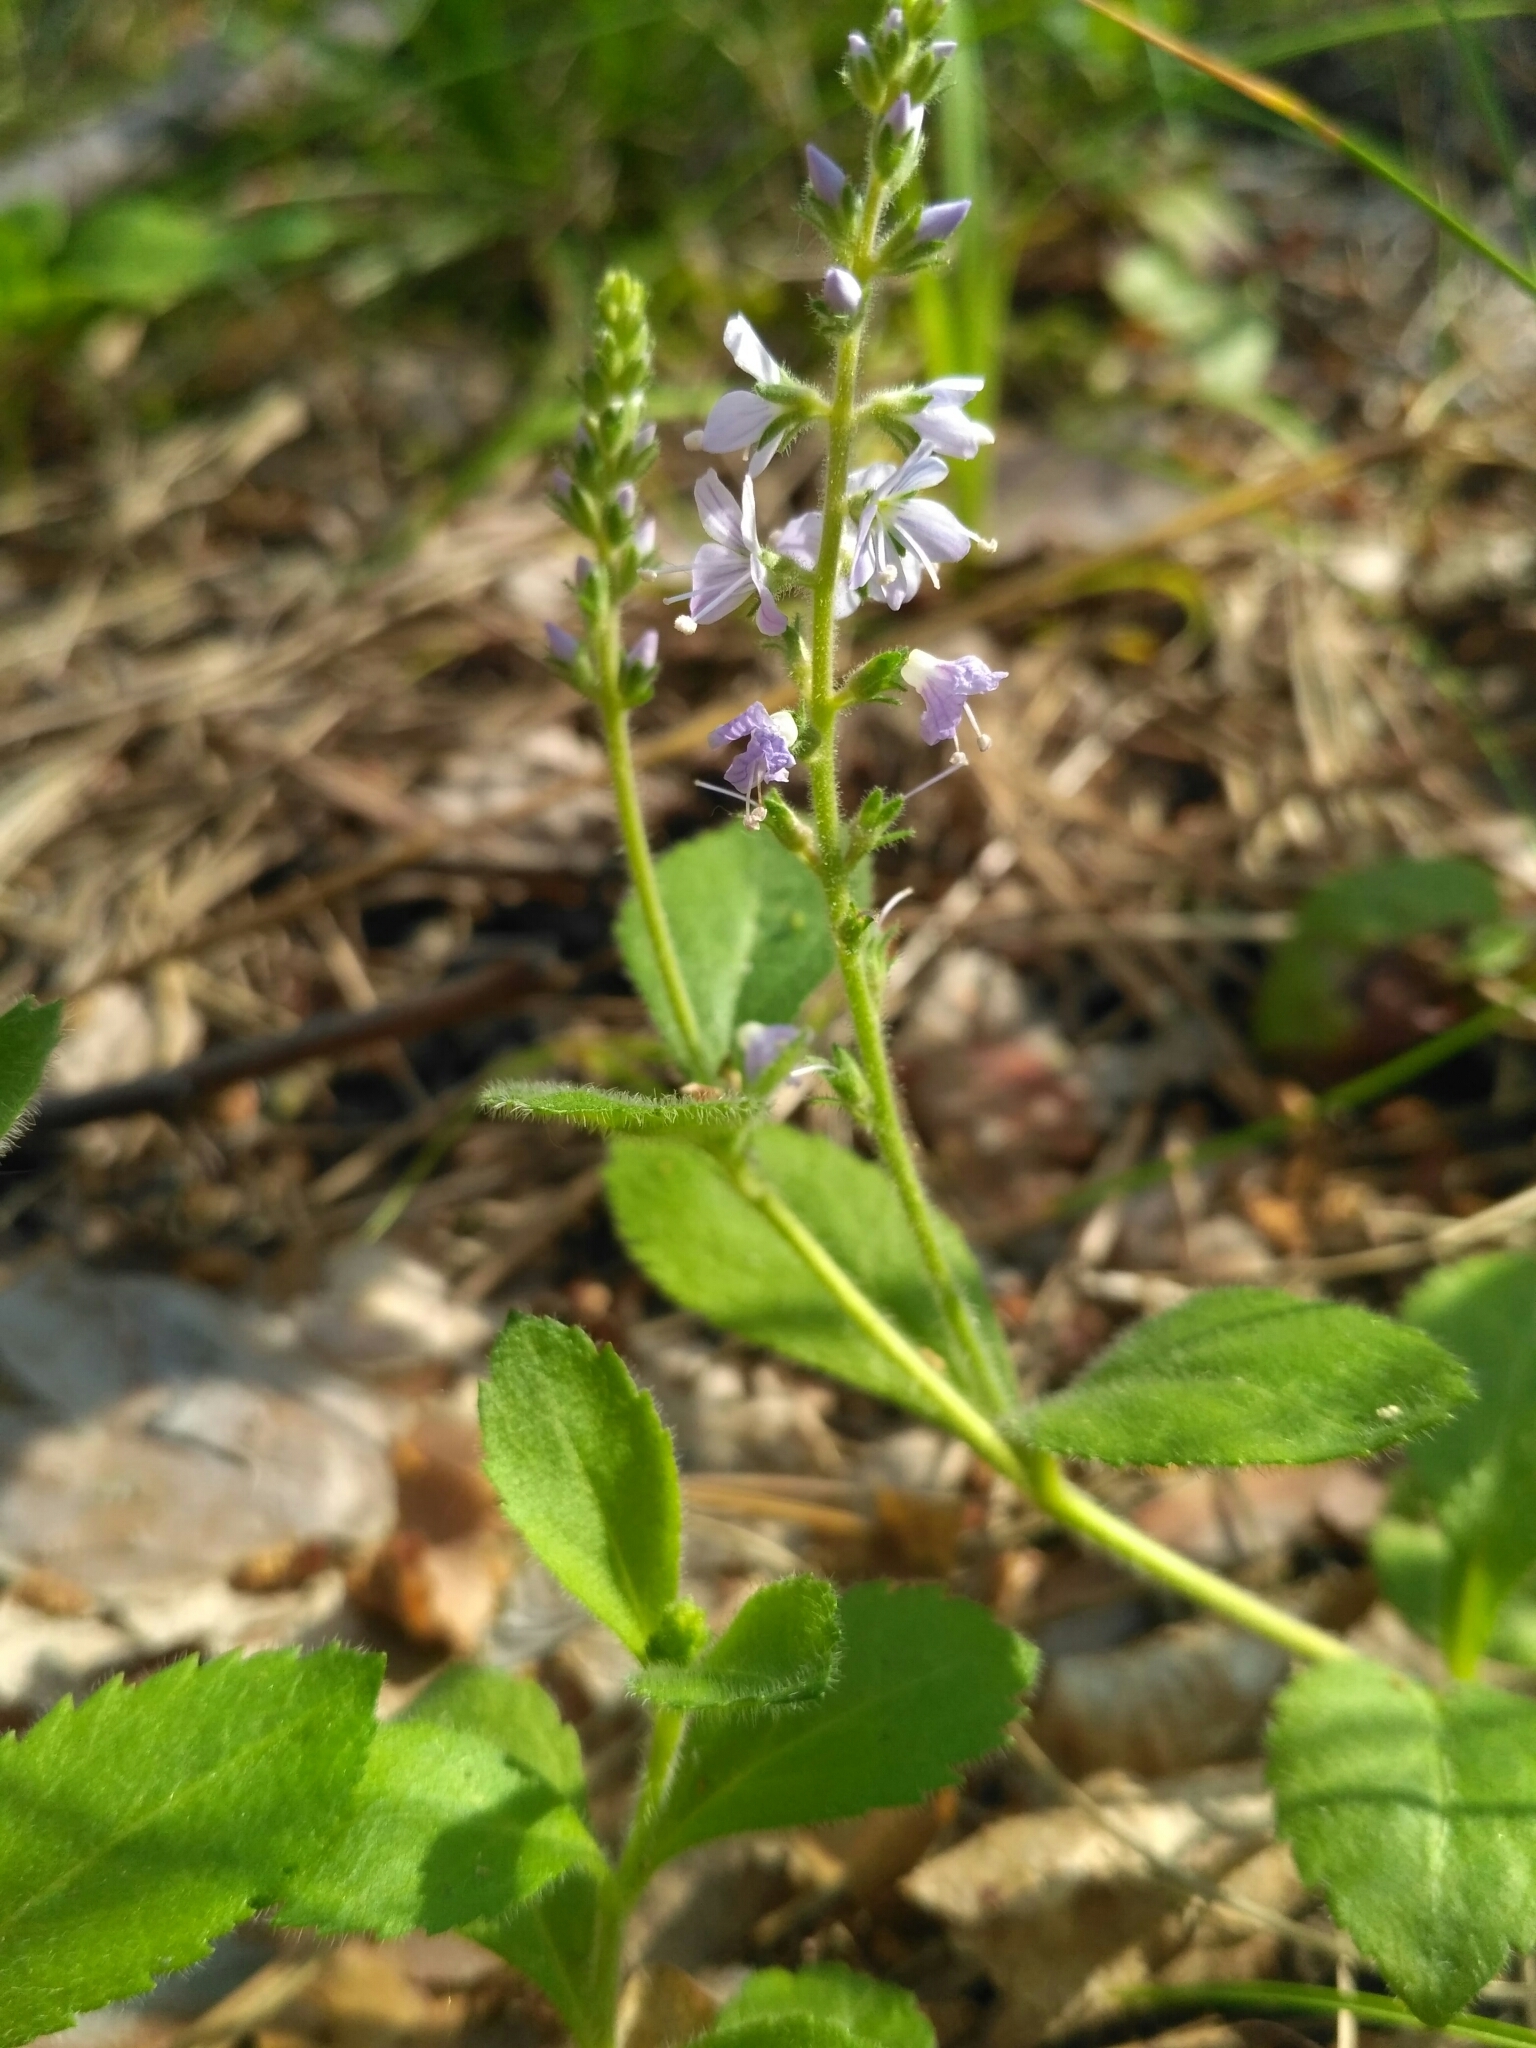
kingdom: Plantae
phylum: Tracheophyta
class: Magnoliopsida
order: Lamiales
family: Plantaginaceae
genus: Veronica
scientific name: Veronica officinalis
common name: Common speedwell
